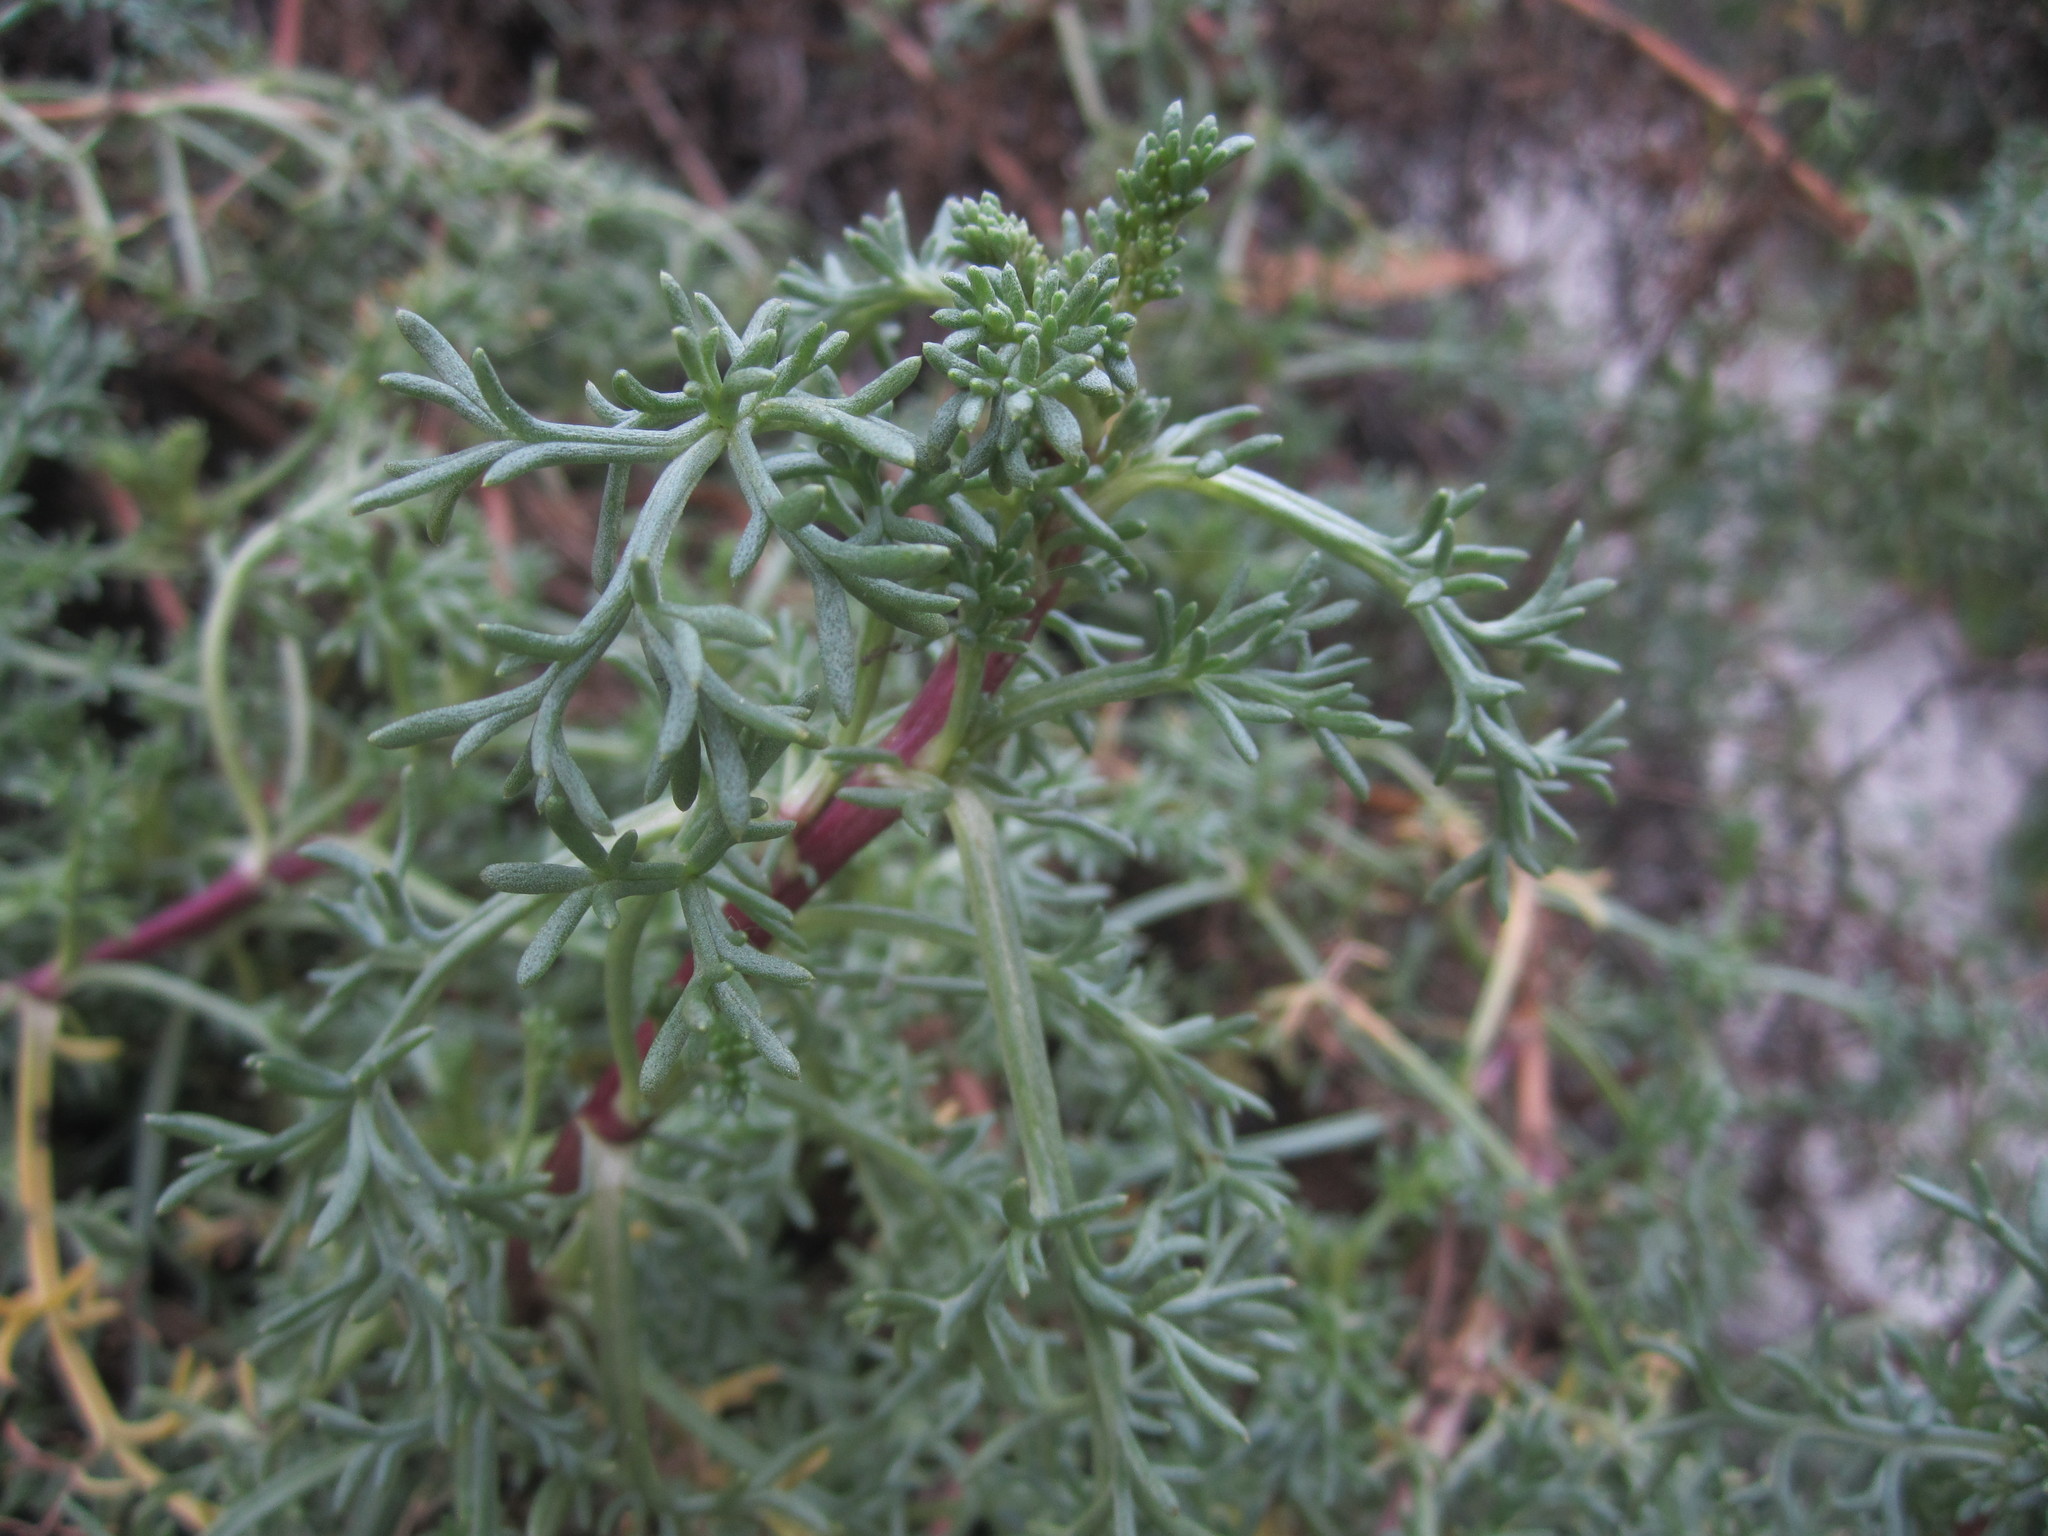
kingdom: Plantae
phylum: Tracheophyta
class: Magnoliopsida
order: Asterales
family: Asteraceae
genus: Artemisia
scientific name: Artemisia crithmifolia
